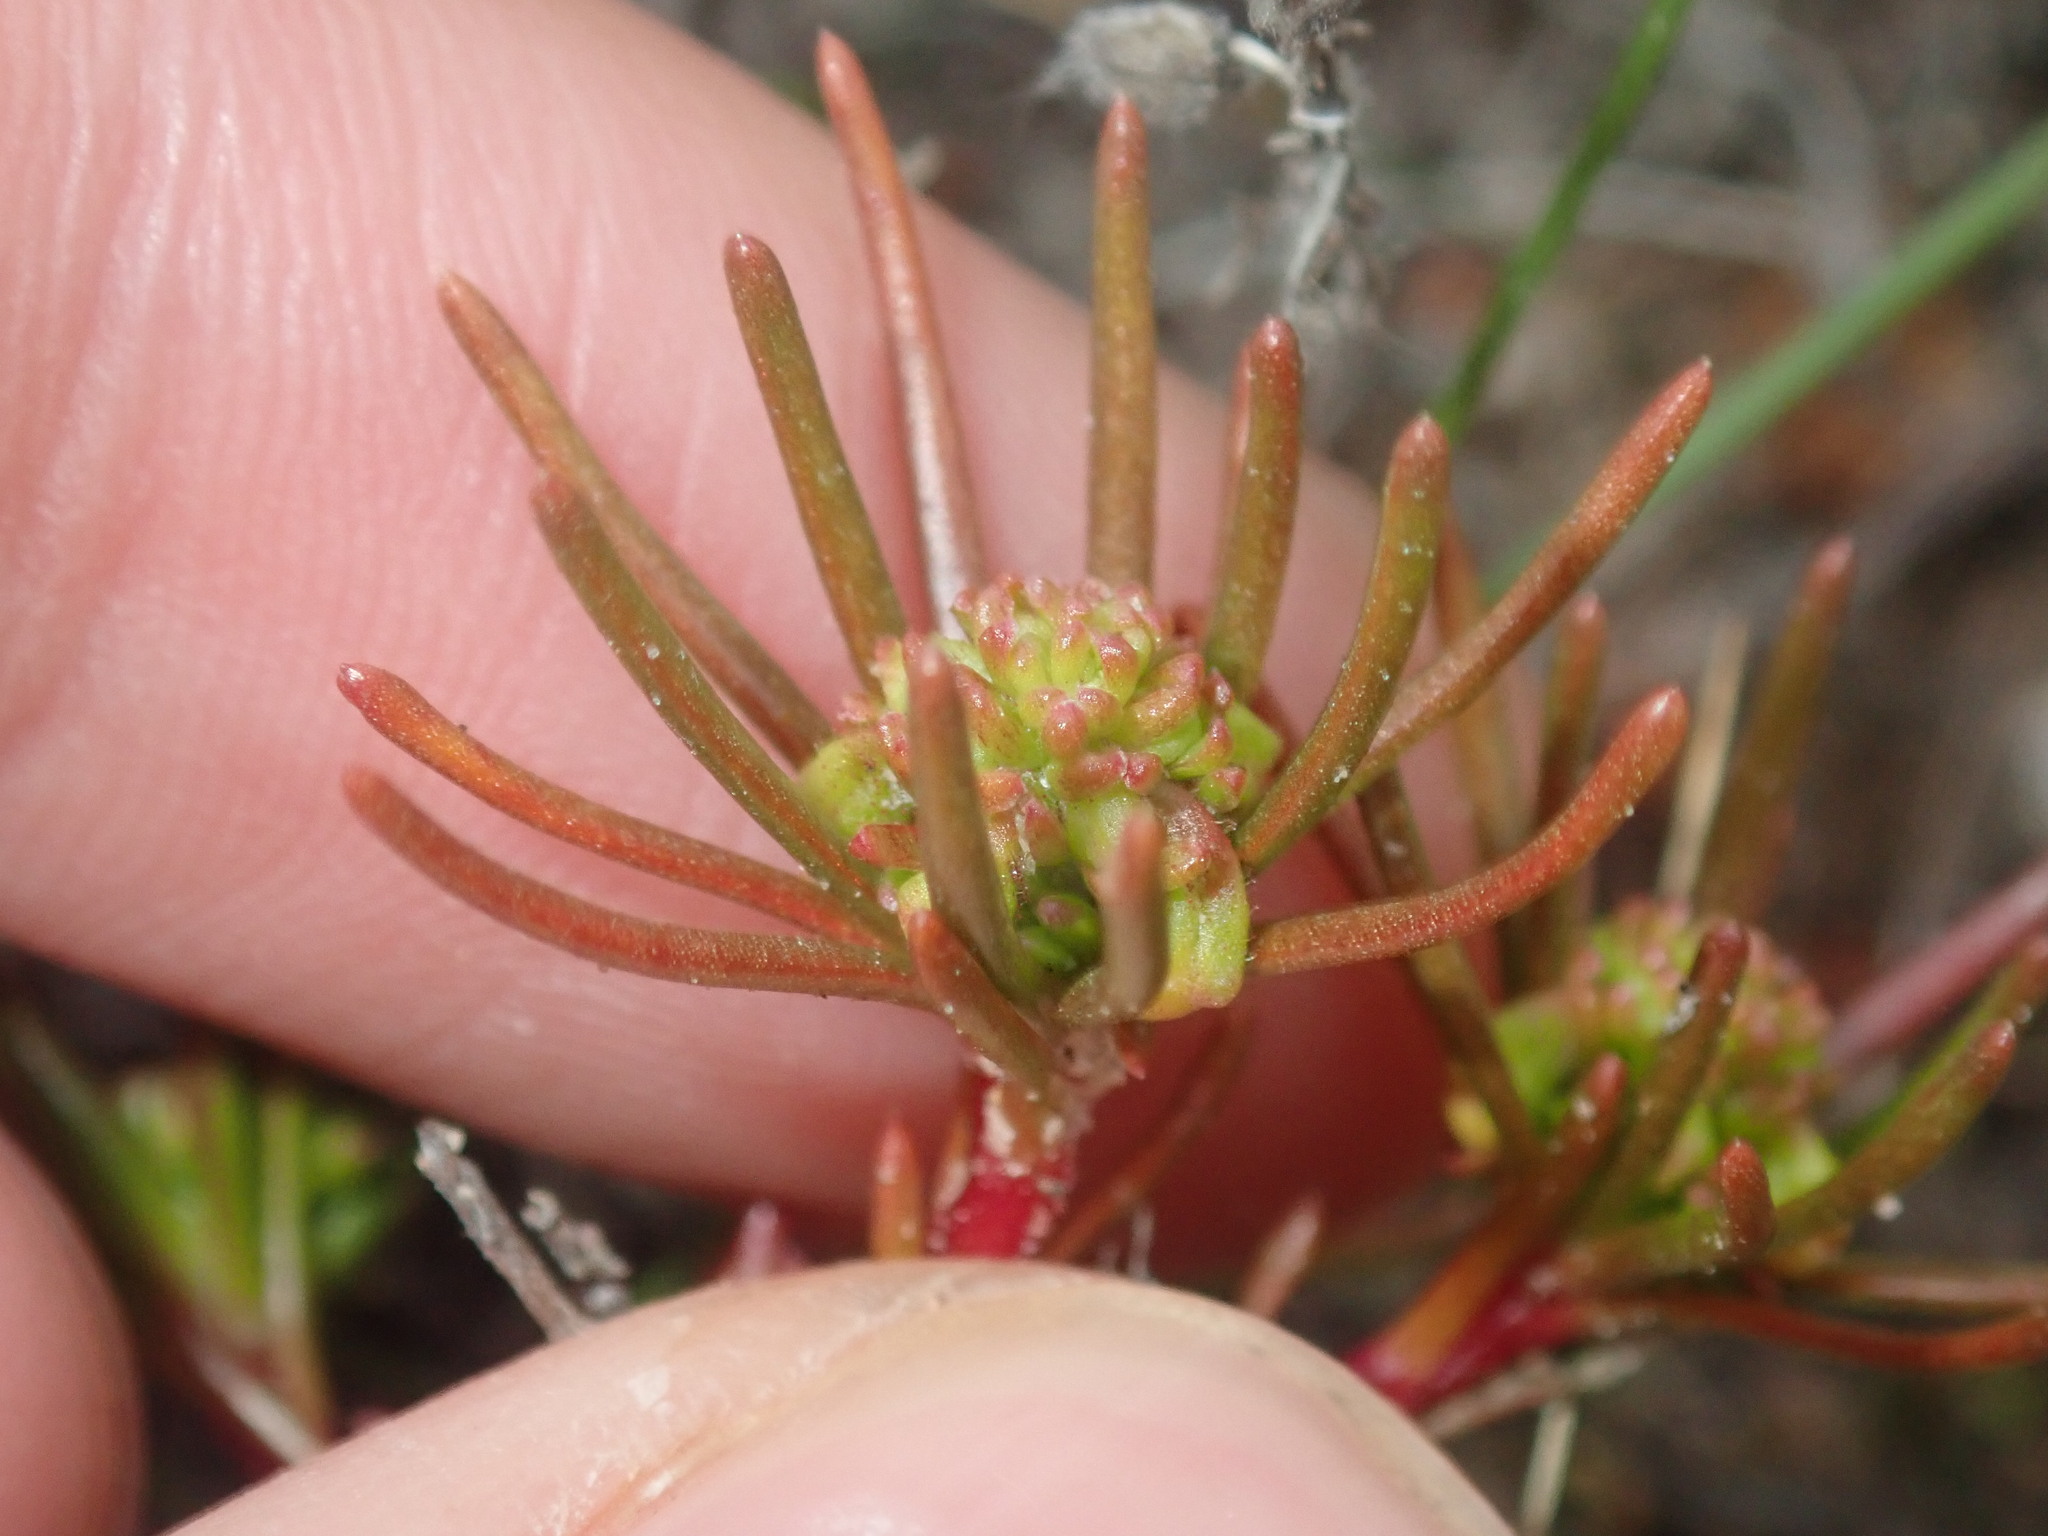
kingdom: Plantae
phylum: Tracheophyta
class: Magnoliopsida
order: Asterales
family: Stylidiaceae
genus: Stylidium
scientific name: Stylidium breviscapum
